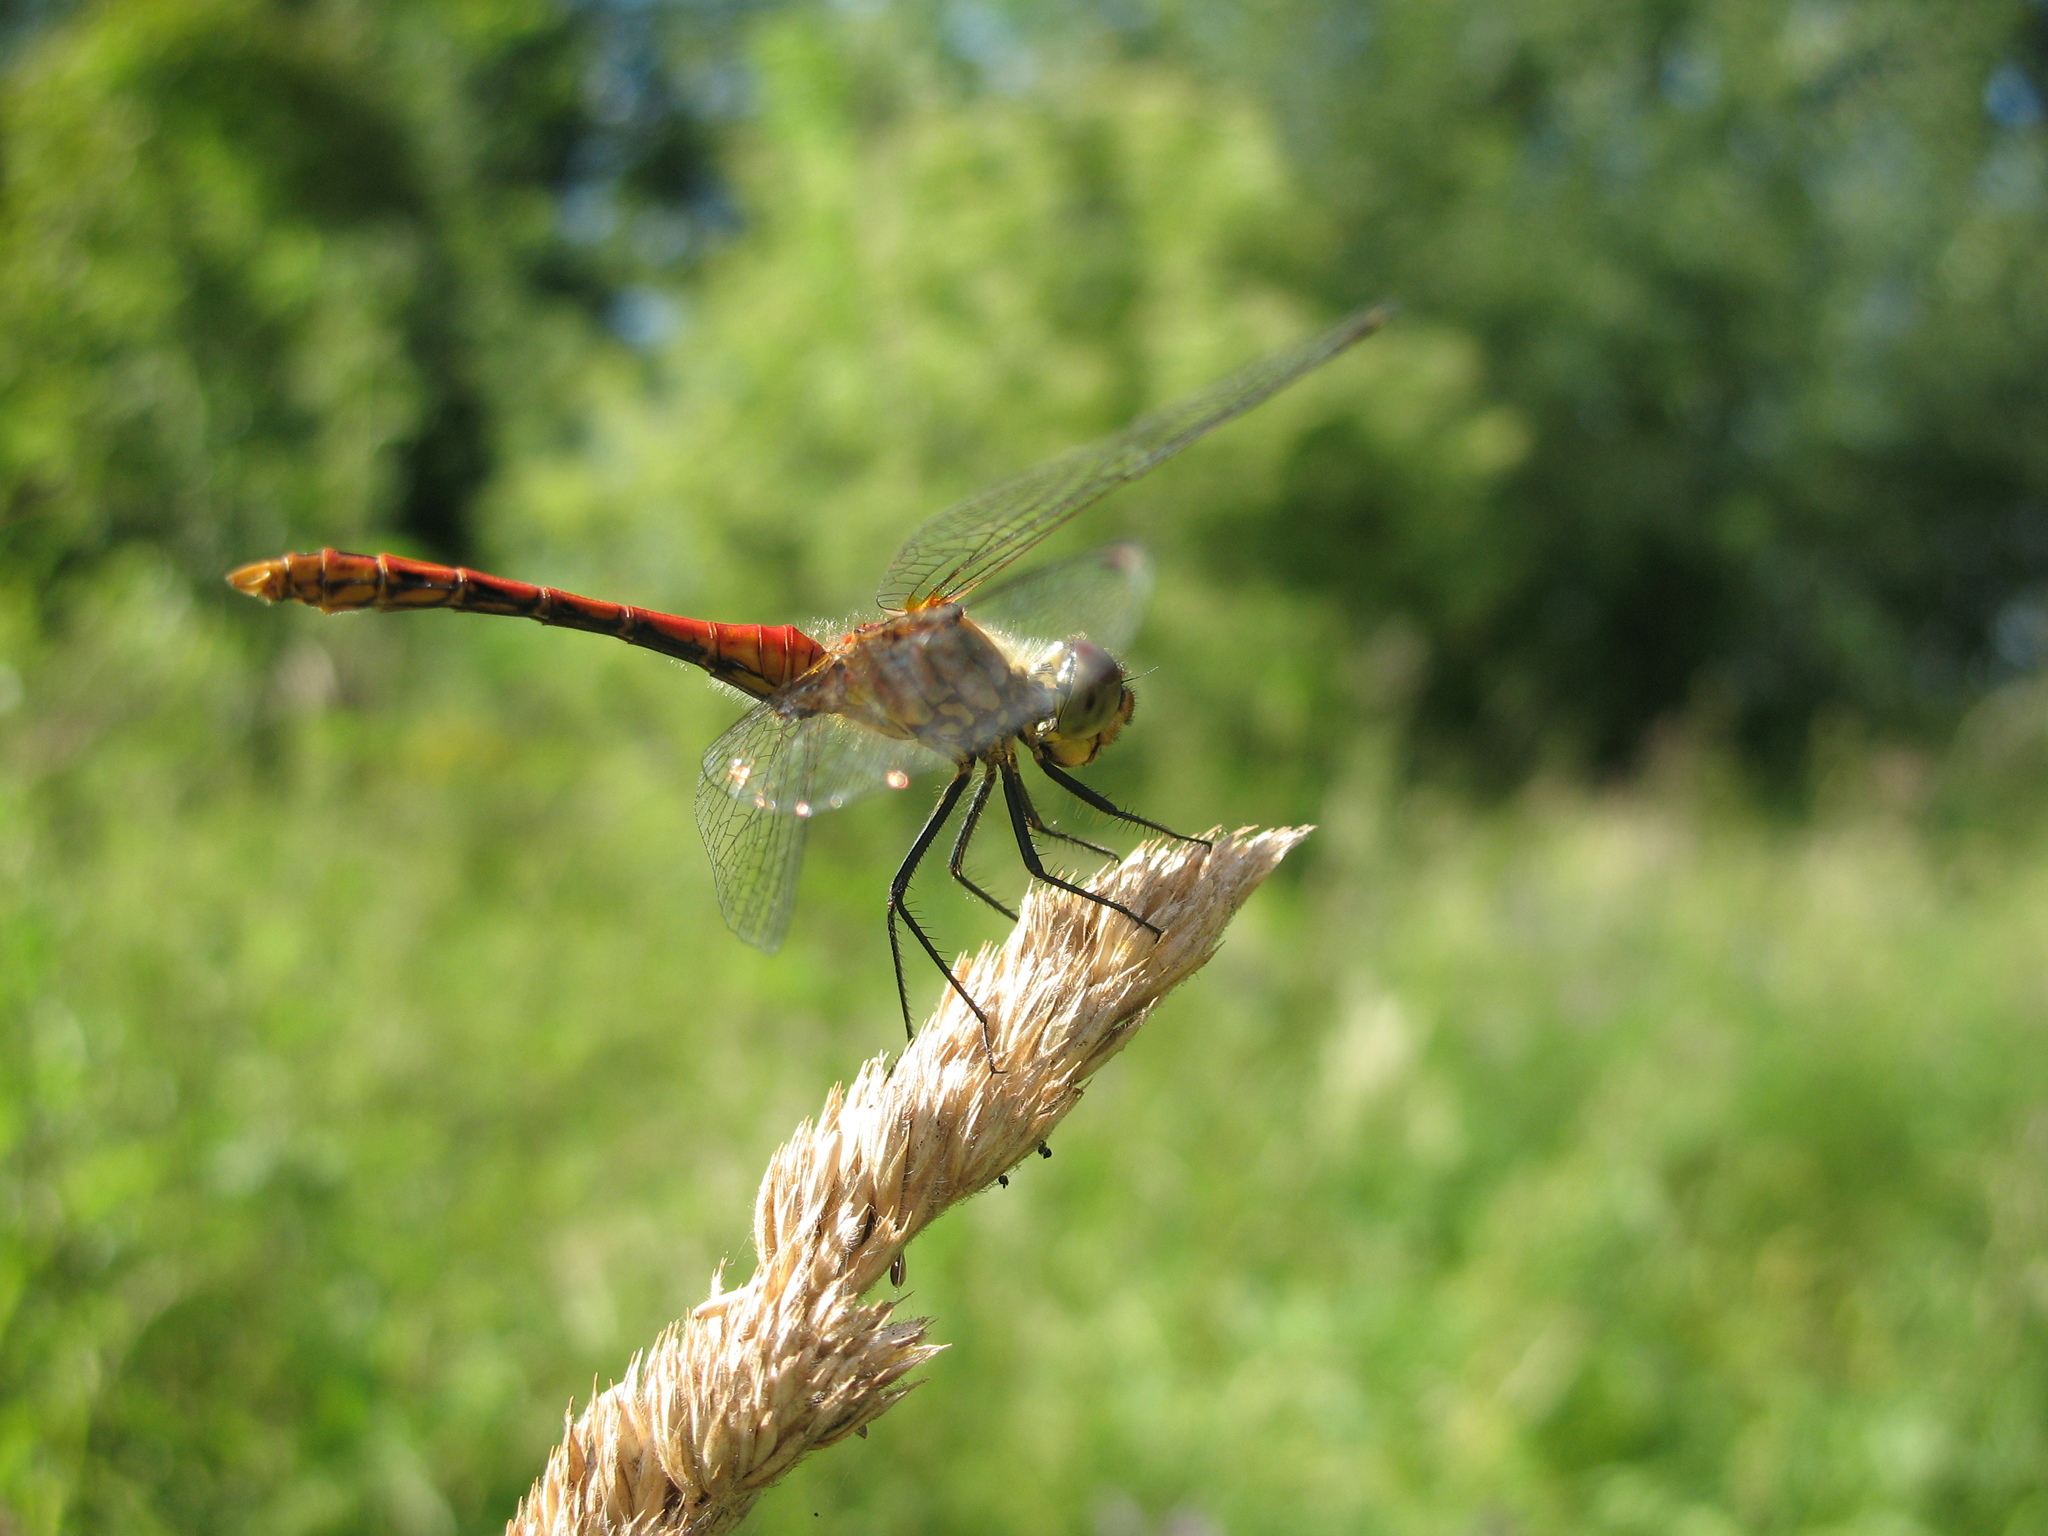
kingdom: Animalia
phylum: Arthropoda
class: Insecta
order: Odonata
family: Libellulidae
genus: Sympetrum
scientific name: Sympetrum sanguineum
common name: Ruddy darter
